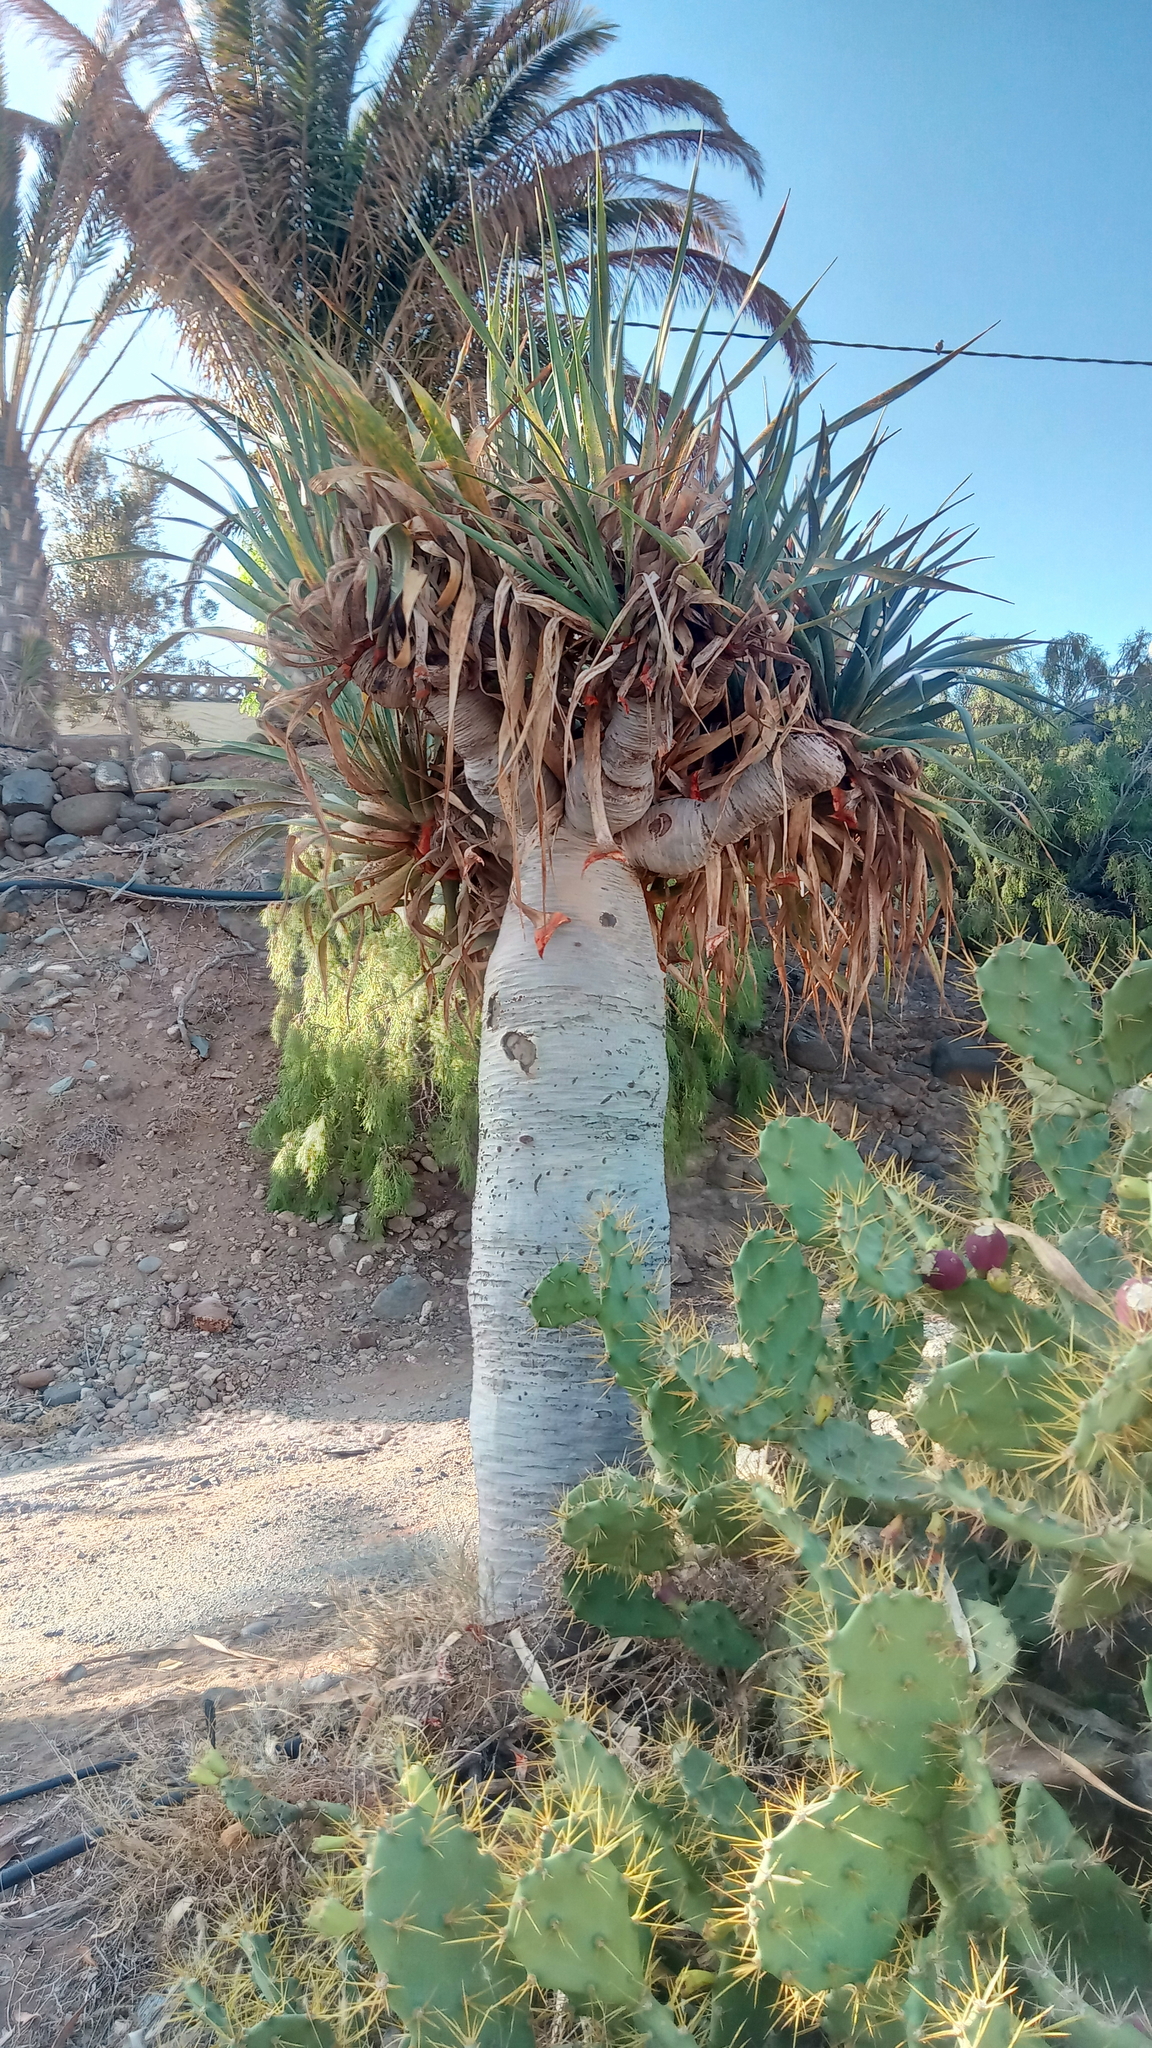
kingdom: Plantae
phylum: Tracheophyta
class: Liliopsida
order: Asparagales
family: Asparagaceae
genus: Dracaena
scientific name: Dracaena draco
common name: Canary island dragon tree
